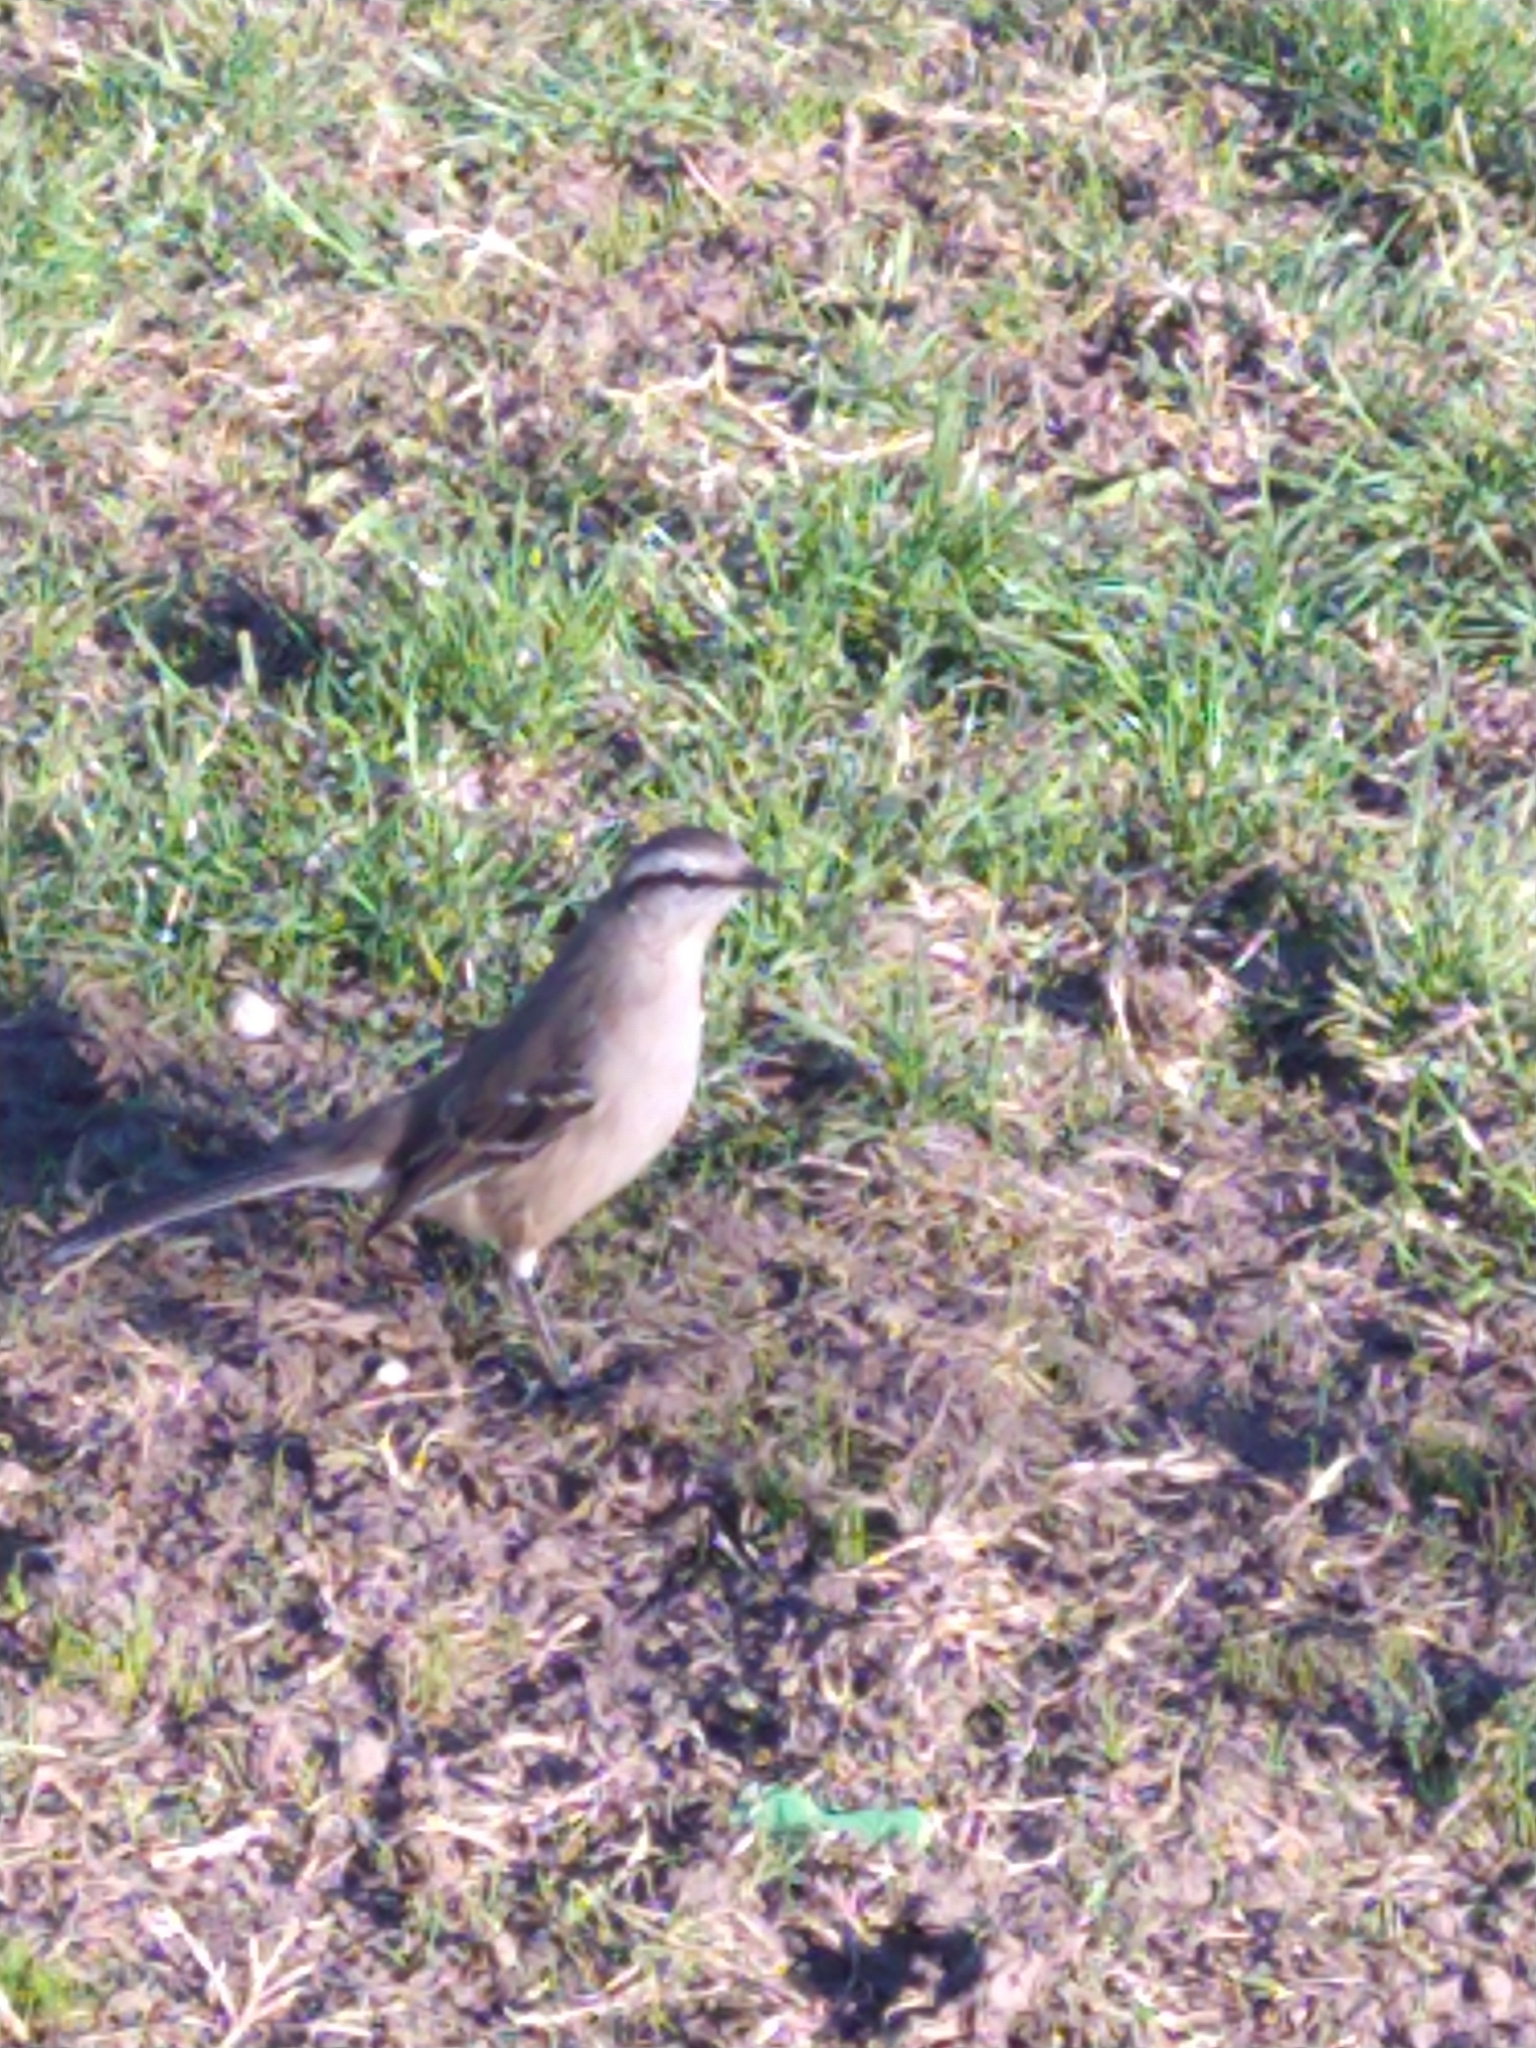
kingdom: Animalia
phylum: Chordata
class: Aves
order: Passeriformes
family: Mimidae
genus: Mimus
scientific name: Mimus saturninus
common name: Chalk-browed mockingbird
